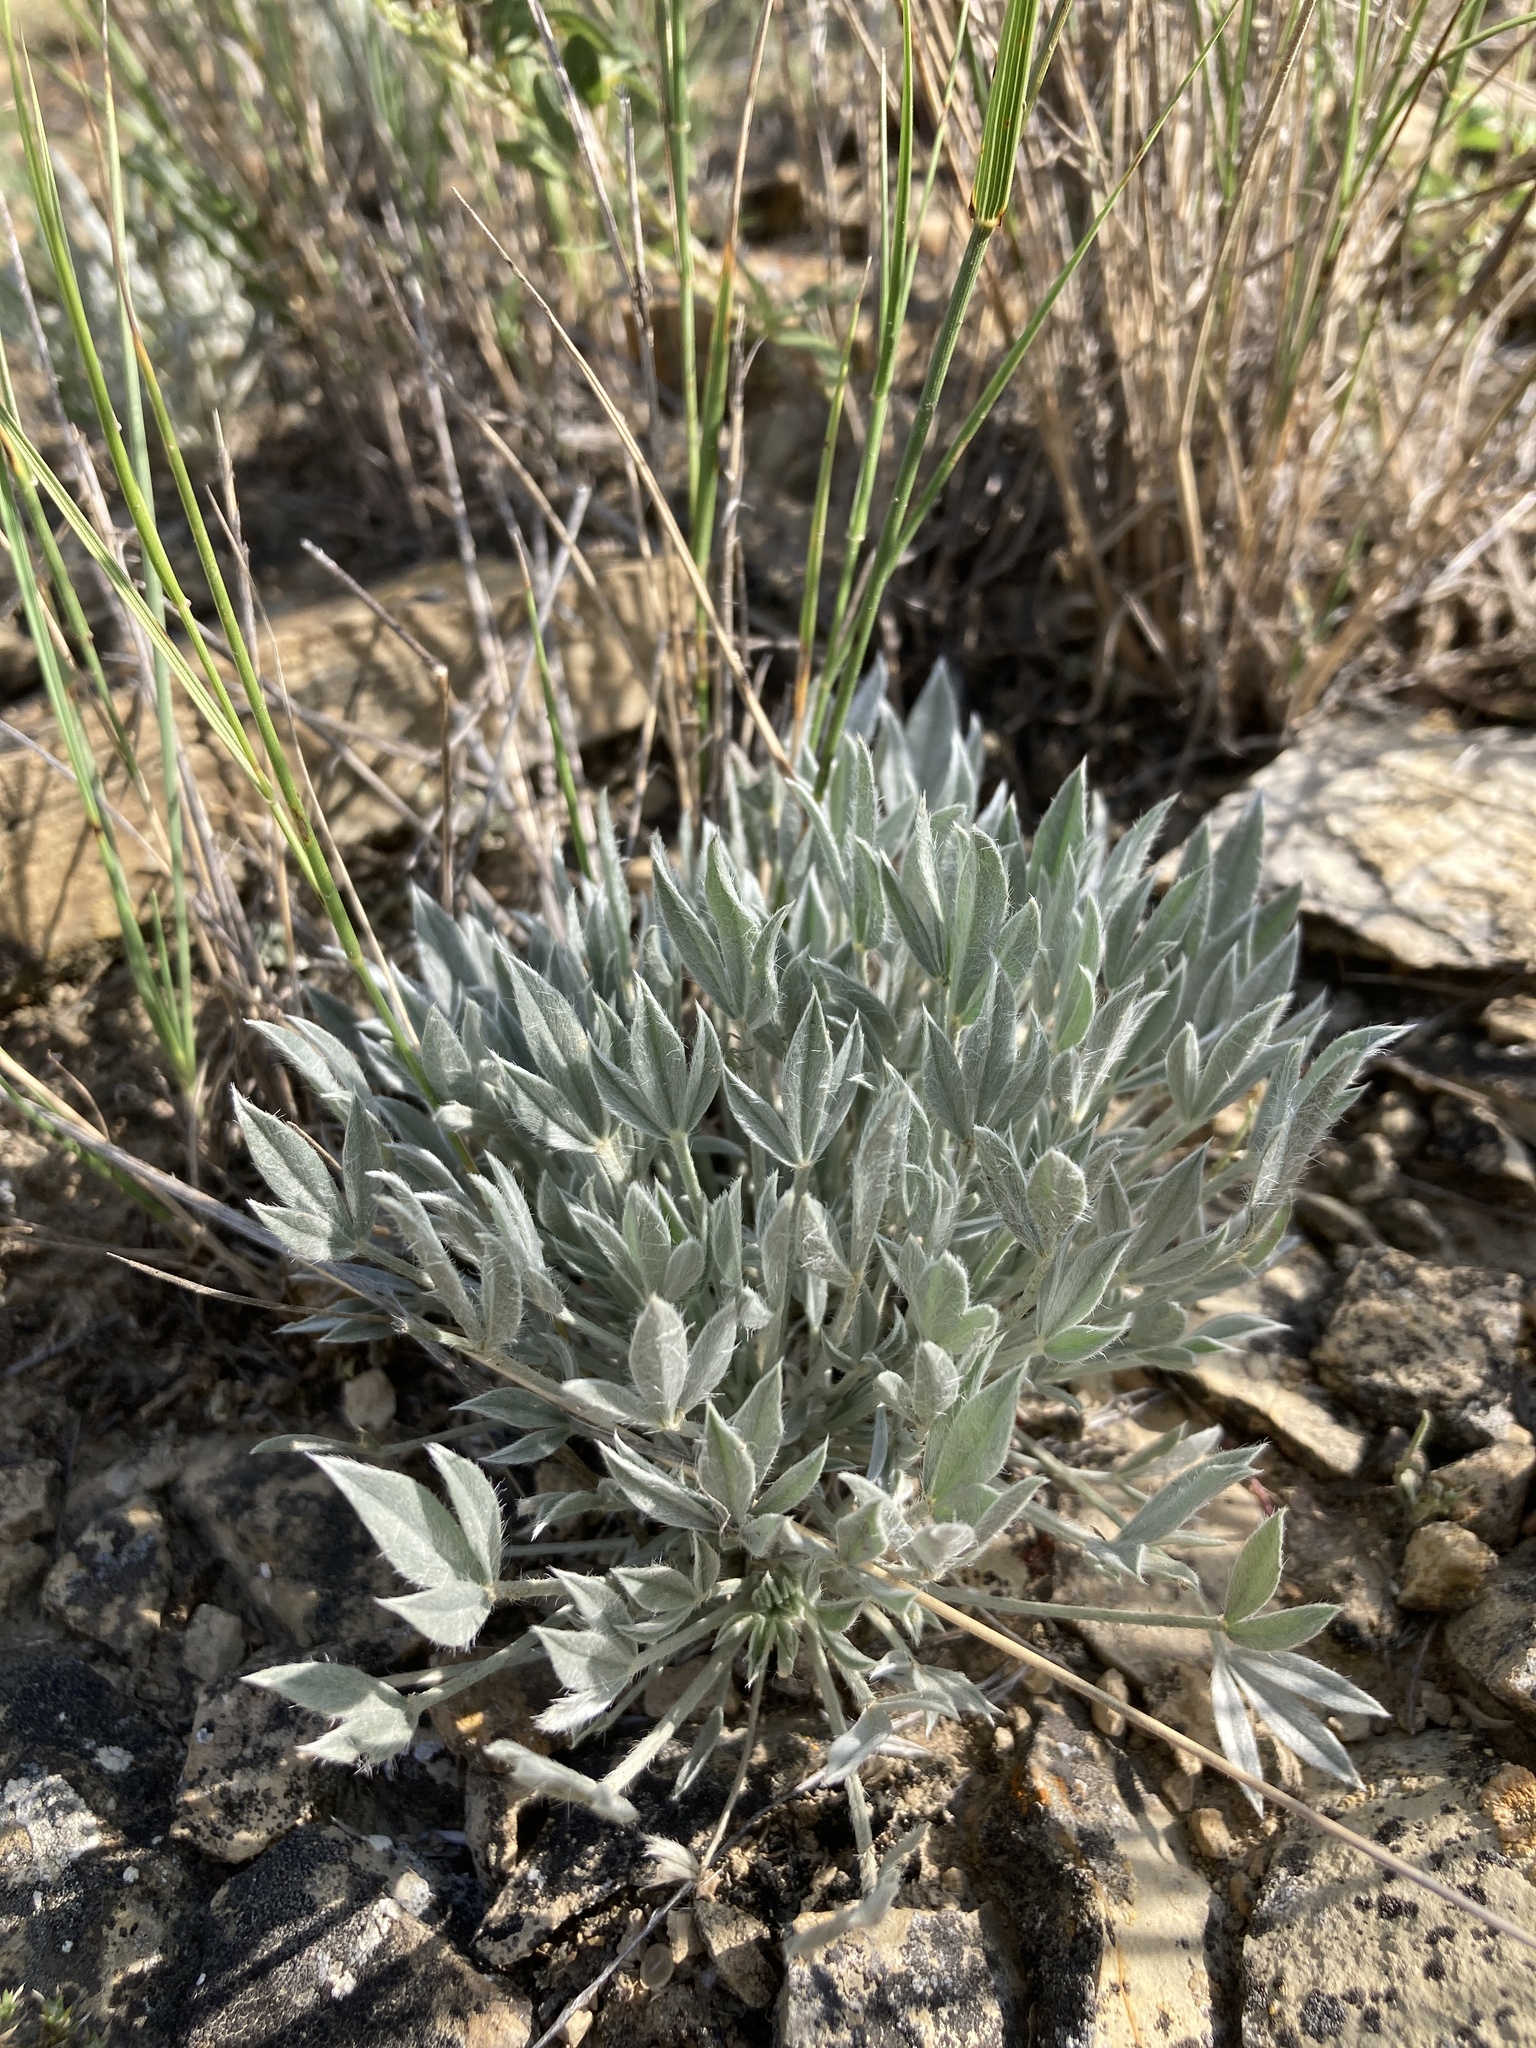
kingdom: Plantae
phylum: Tracheophyta
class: Magnoliopsida
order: Fabales
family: Fabaceae
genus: Astragalus
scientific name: Astragalus gilviflorus
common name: Cushion milk-vetch
